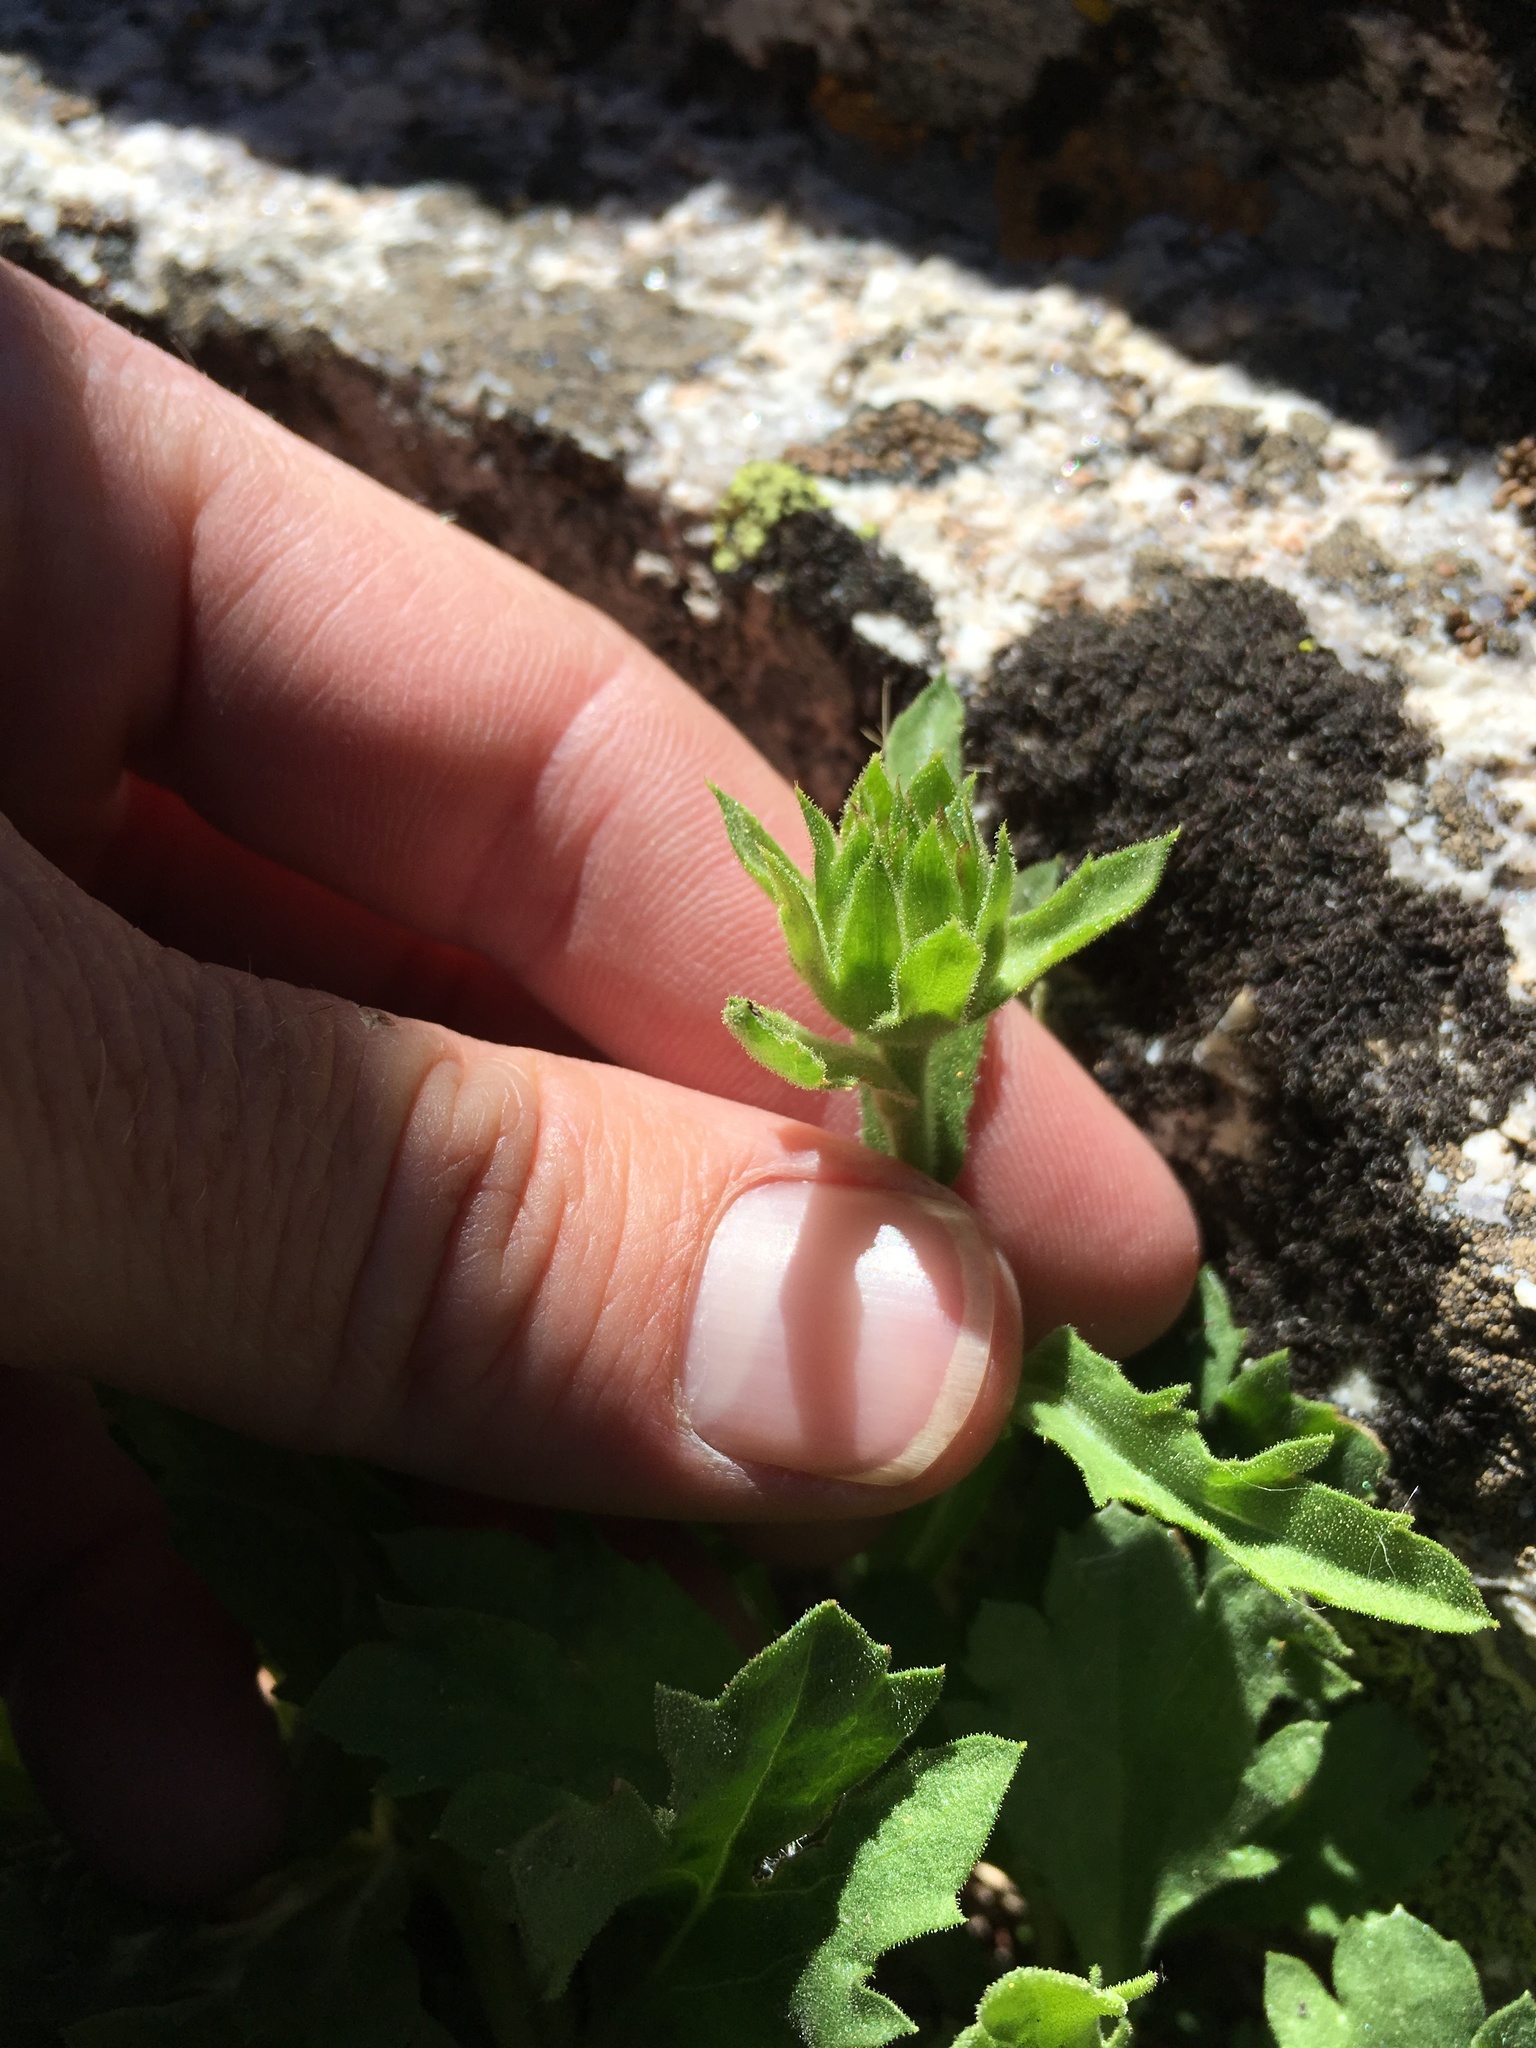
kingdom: Plantae
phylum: Tracheophyta
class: Magnoliopsida
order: Asterales
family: Asteraceae
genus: Toiyabea
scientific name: Toiyabea peirsonii
